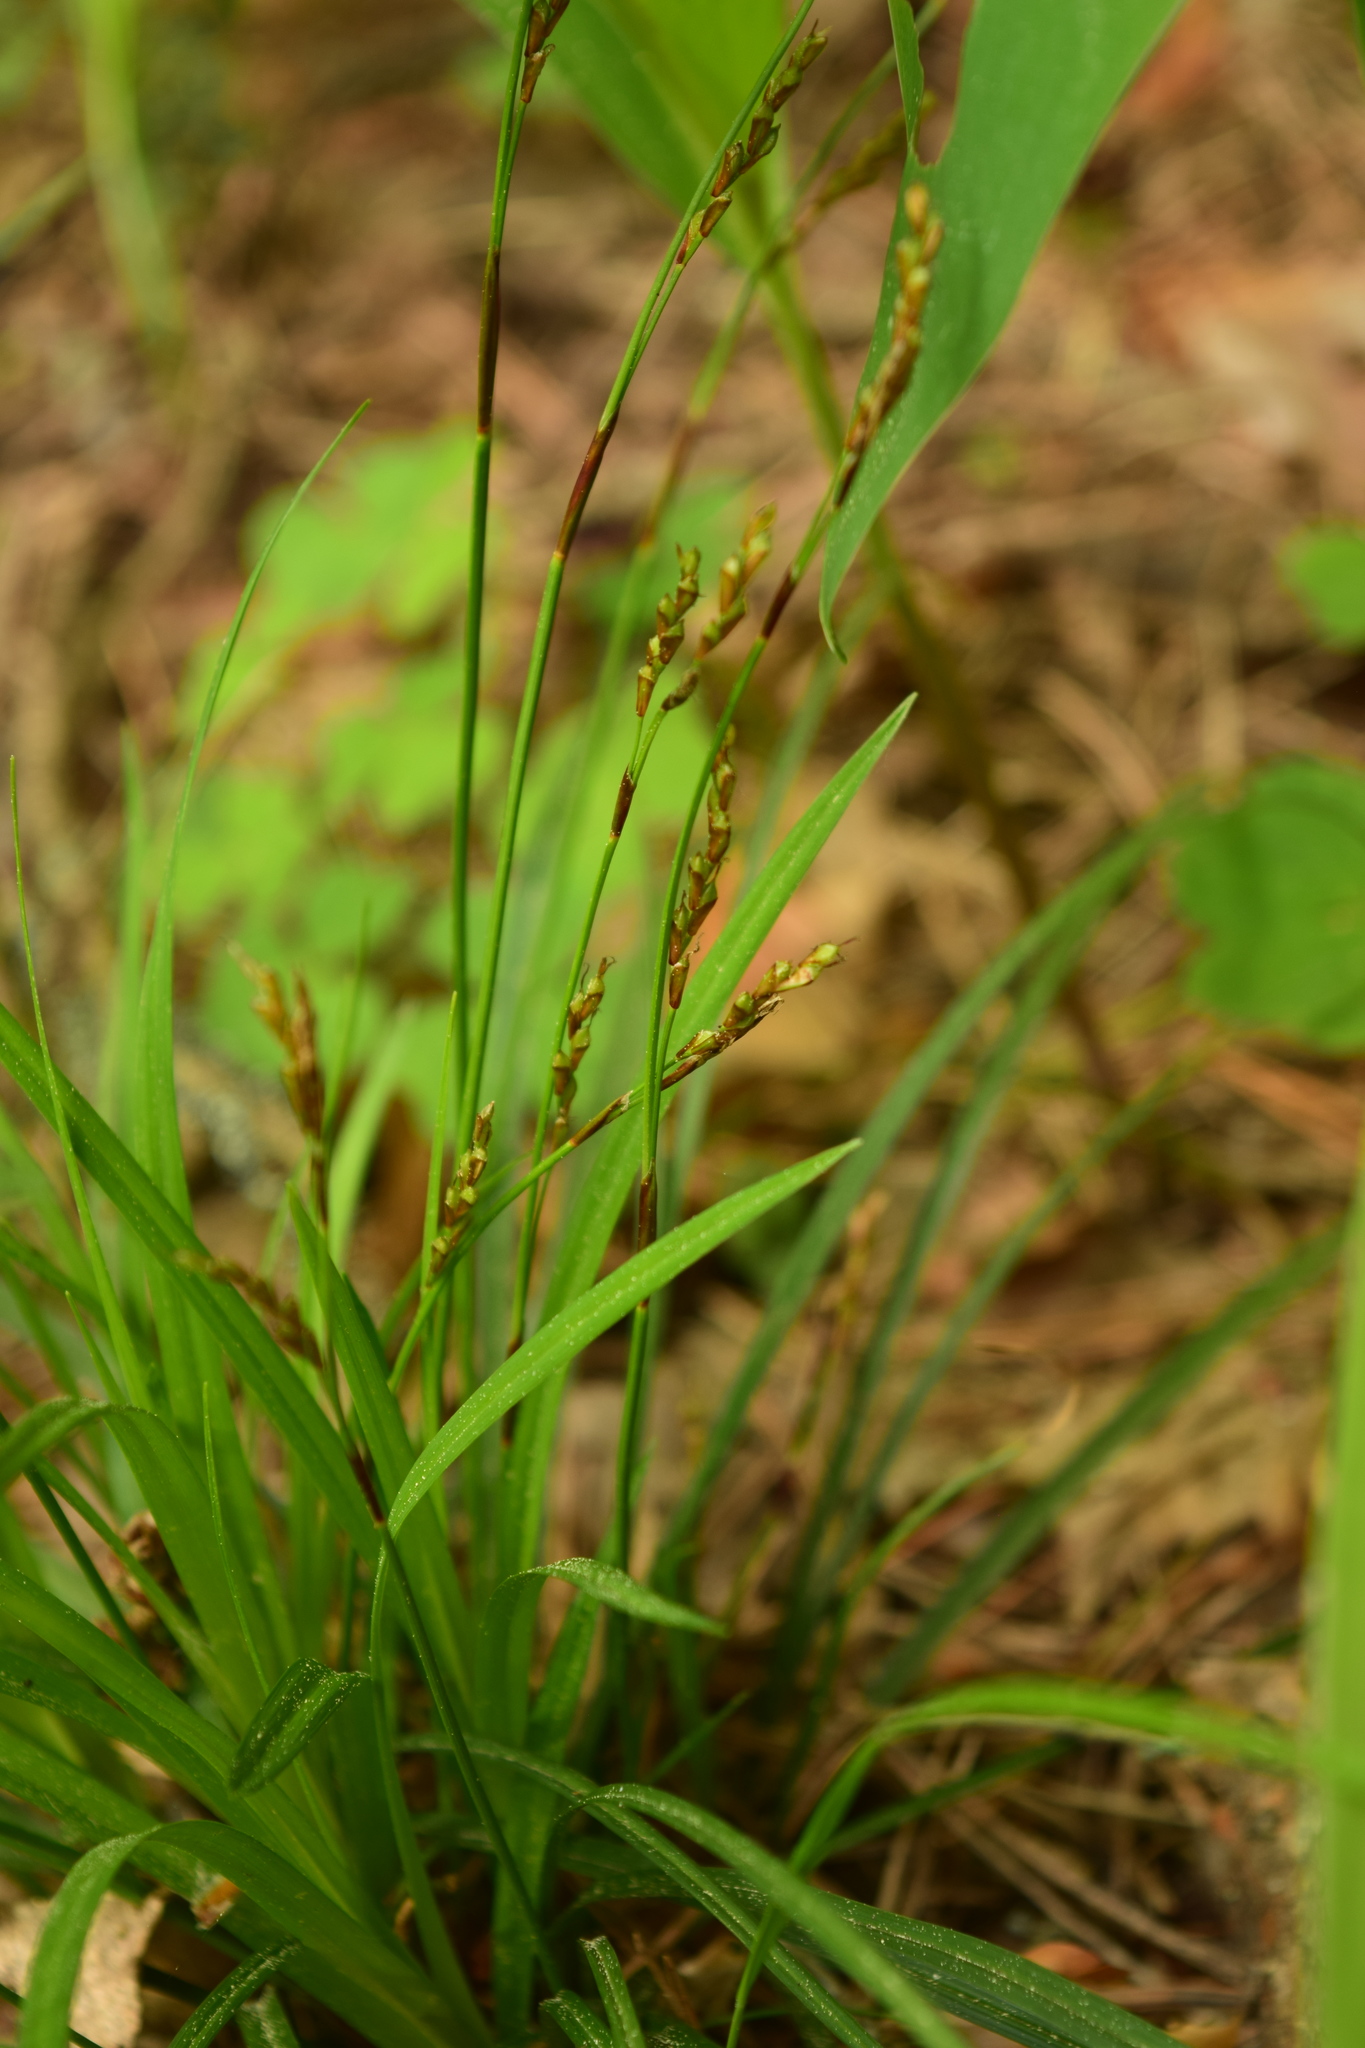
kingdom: Plantae
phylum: Tracheophyta
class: Liliopsida
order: Poales
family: Cyperaceae
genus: Carex
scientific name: Carex digitata
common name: Fingered sedge
